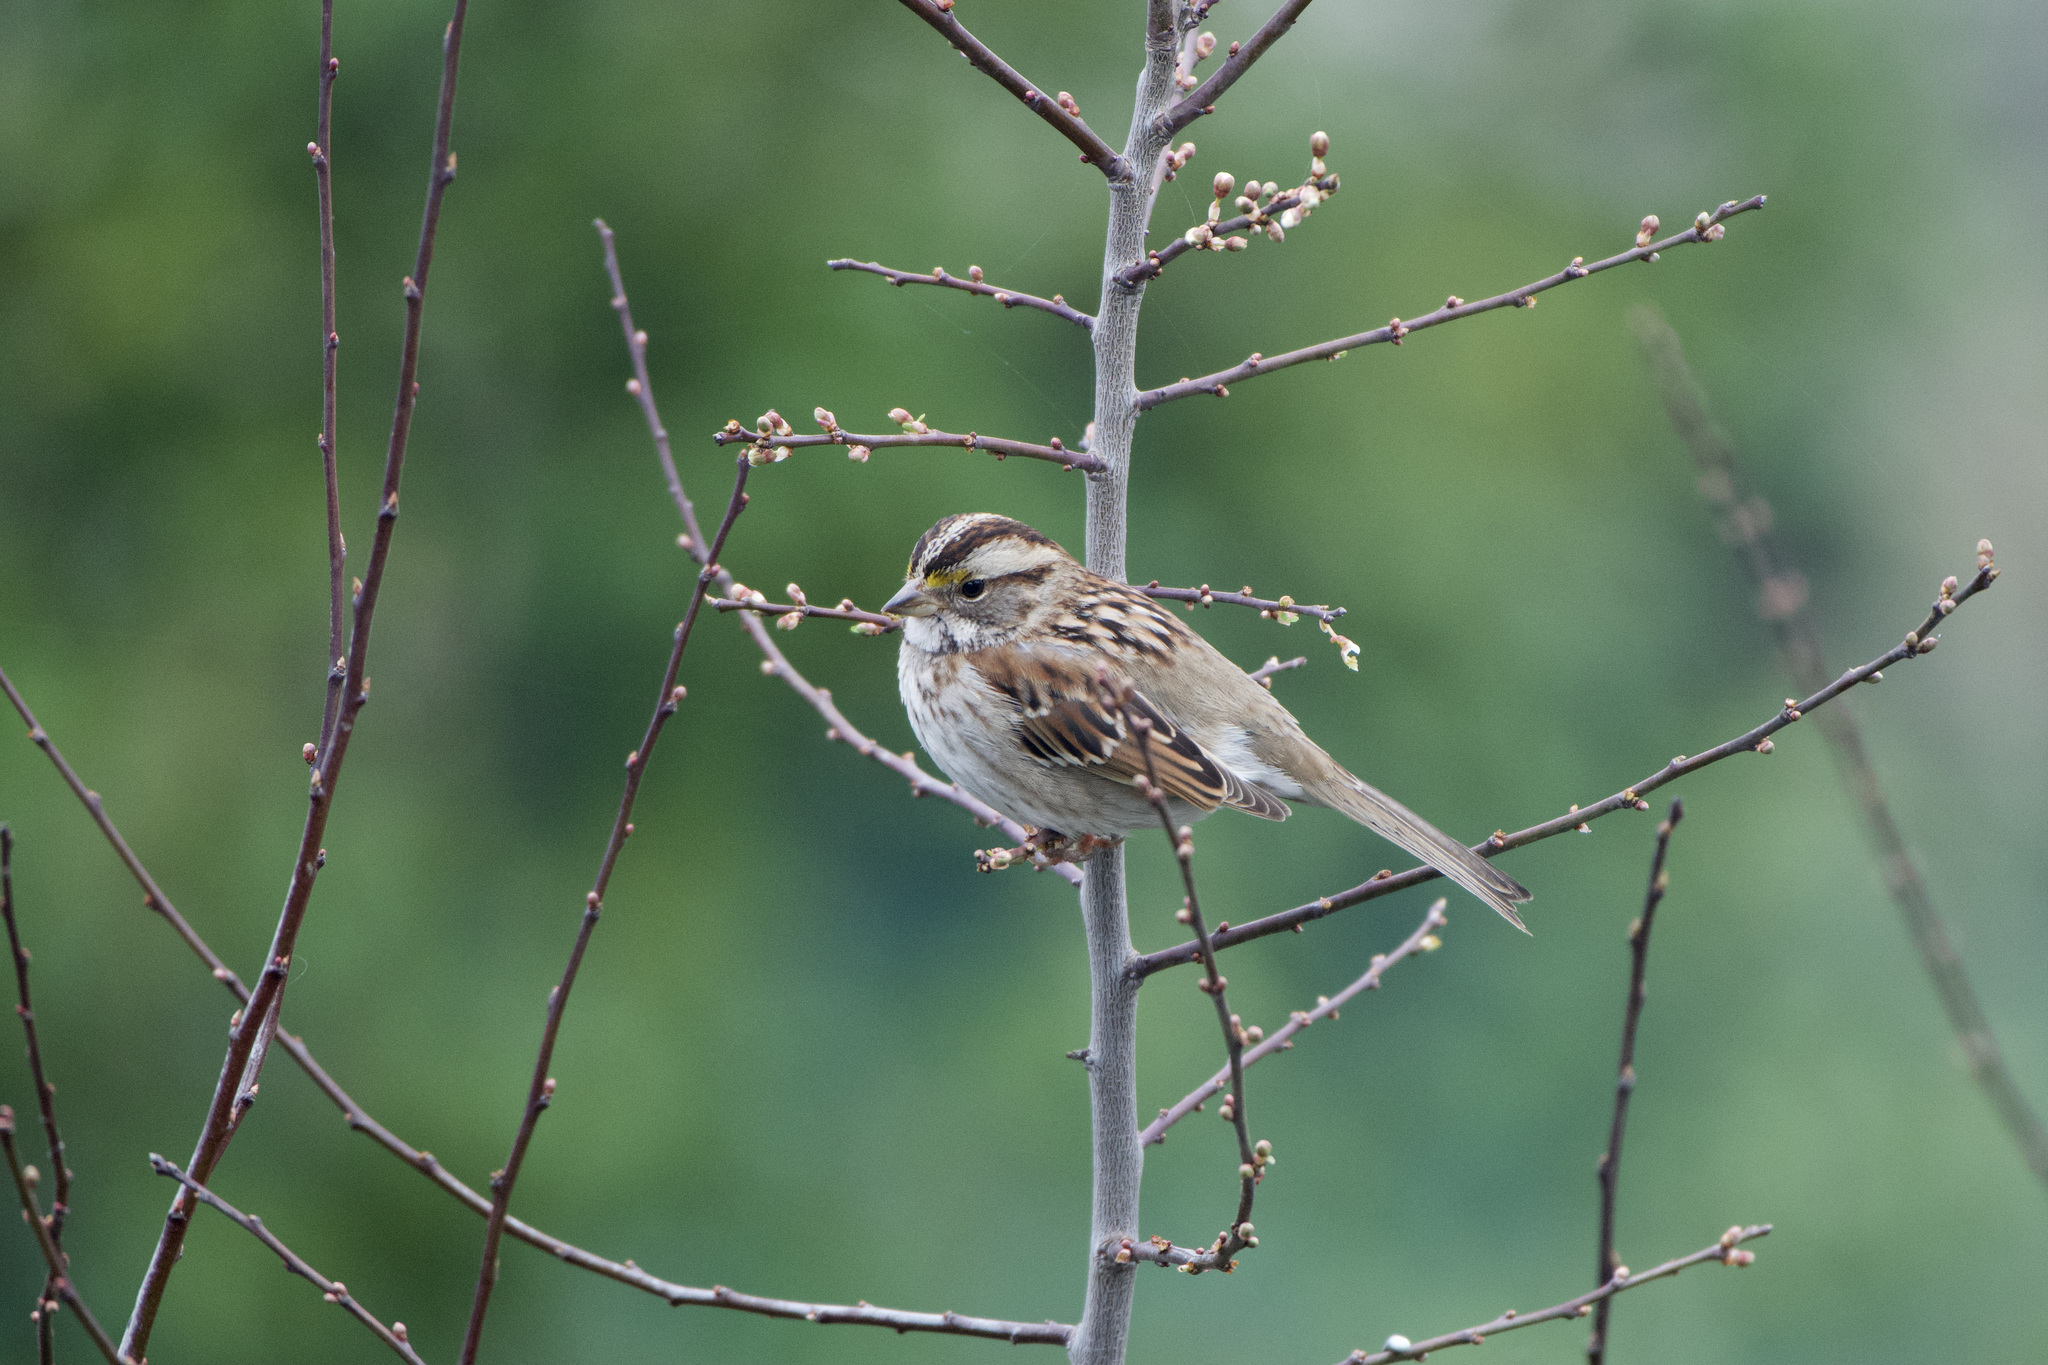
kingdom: Animalia
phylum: Chordata
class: Aves
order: Passeriformes
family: Passerellidae
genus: Zonotrichia
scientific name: Zonotrichia albicollis
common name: White-throated sparrow
